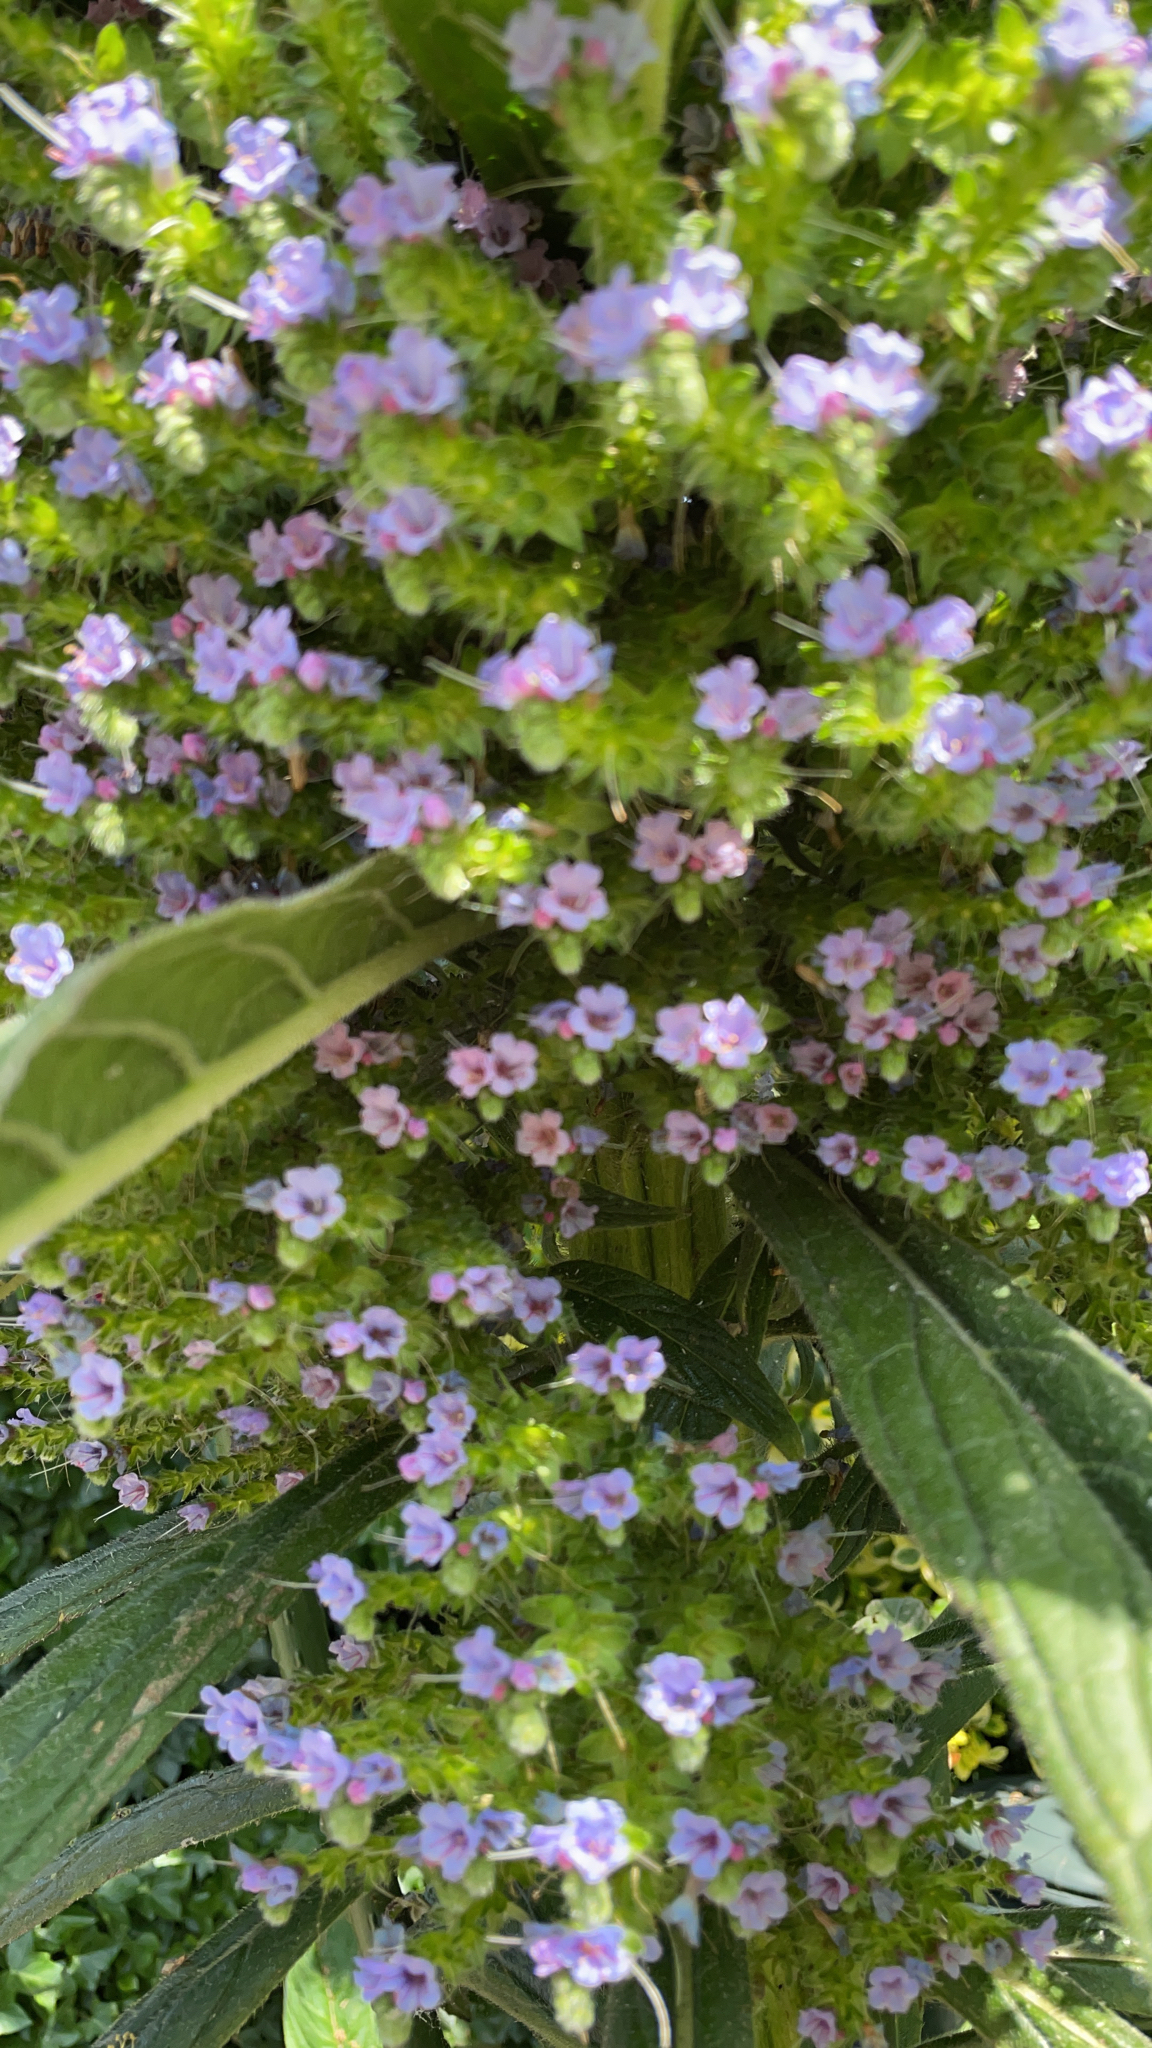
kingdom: Plantae
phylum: Tracheophyta
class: Magnoliopsida
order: Boraginales
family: Boraginaceae
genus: Echium
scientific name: Echium pininana
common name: Giant viper's-bugloss
